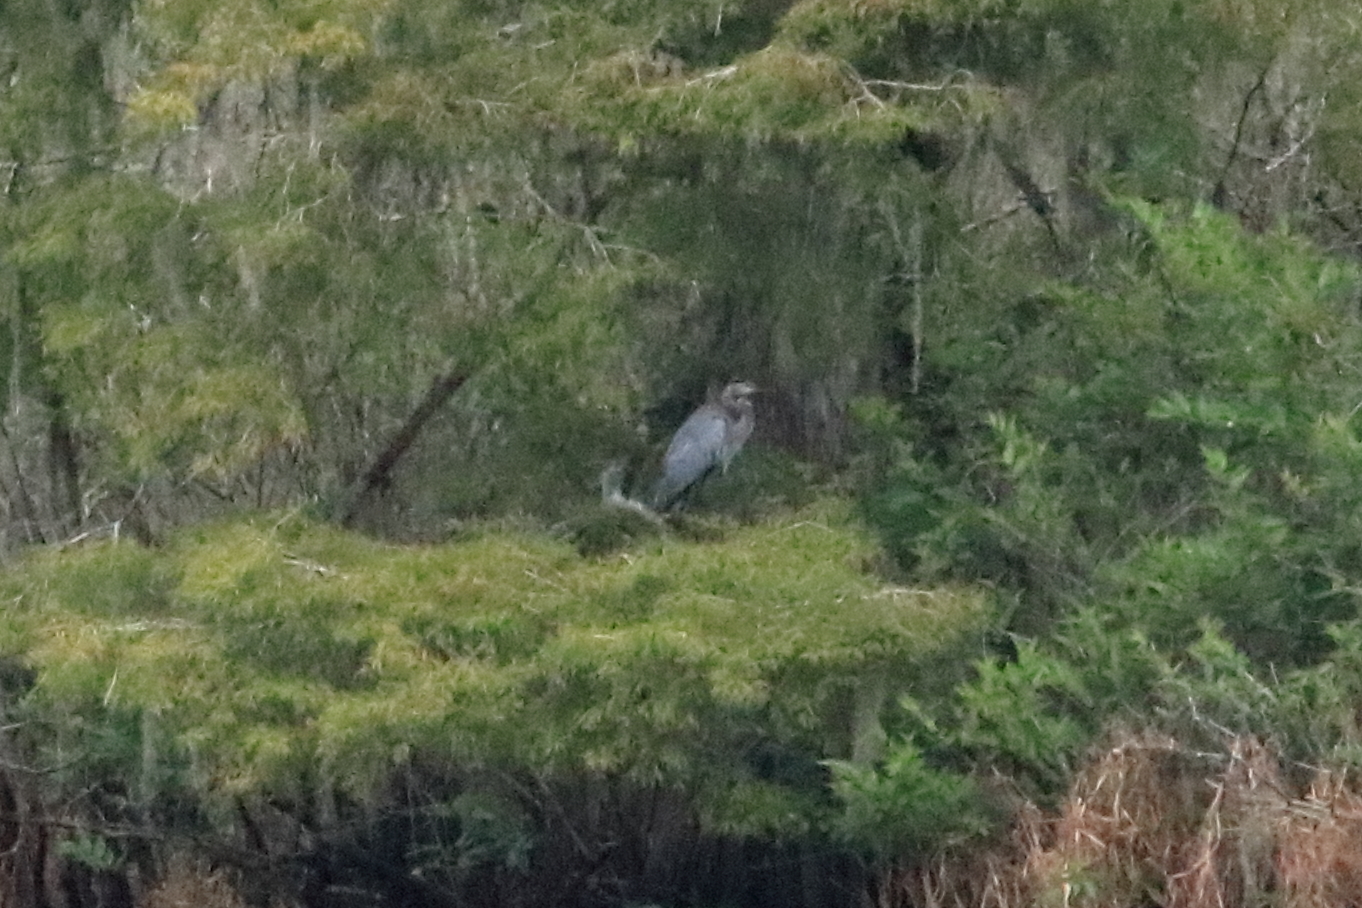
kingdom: Animalia
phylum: Chordata
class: Aves
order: Pelecaniformes
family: Ardeidae
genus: Ardea
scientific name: Ardea herodias
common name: Great blue heron
